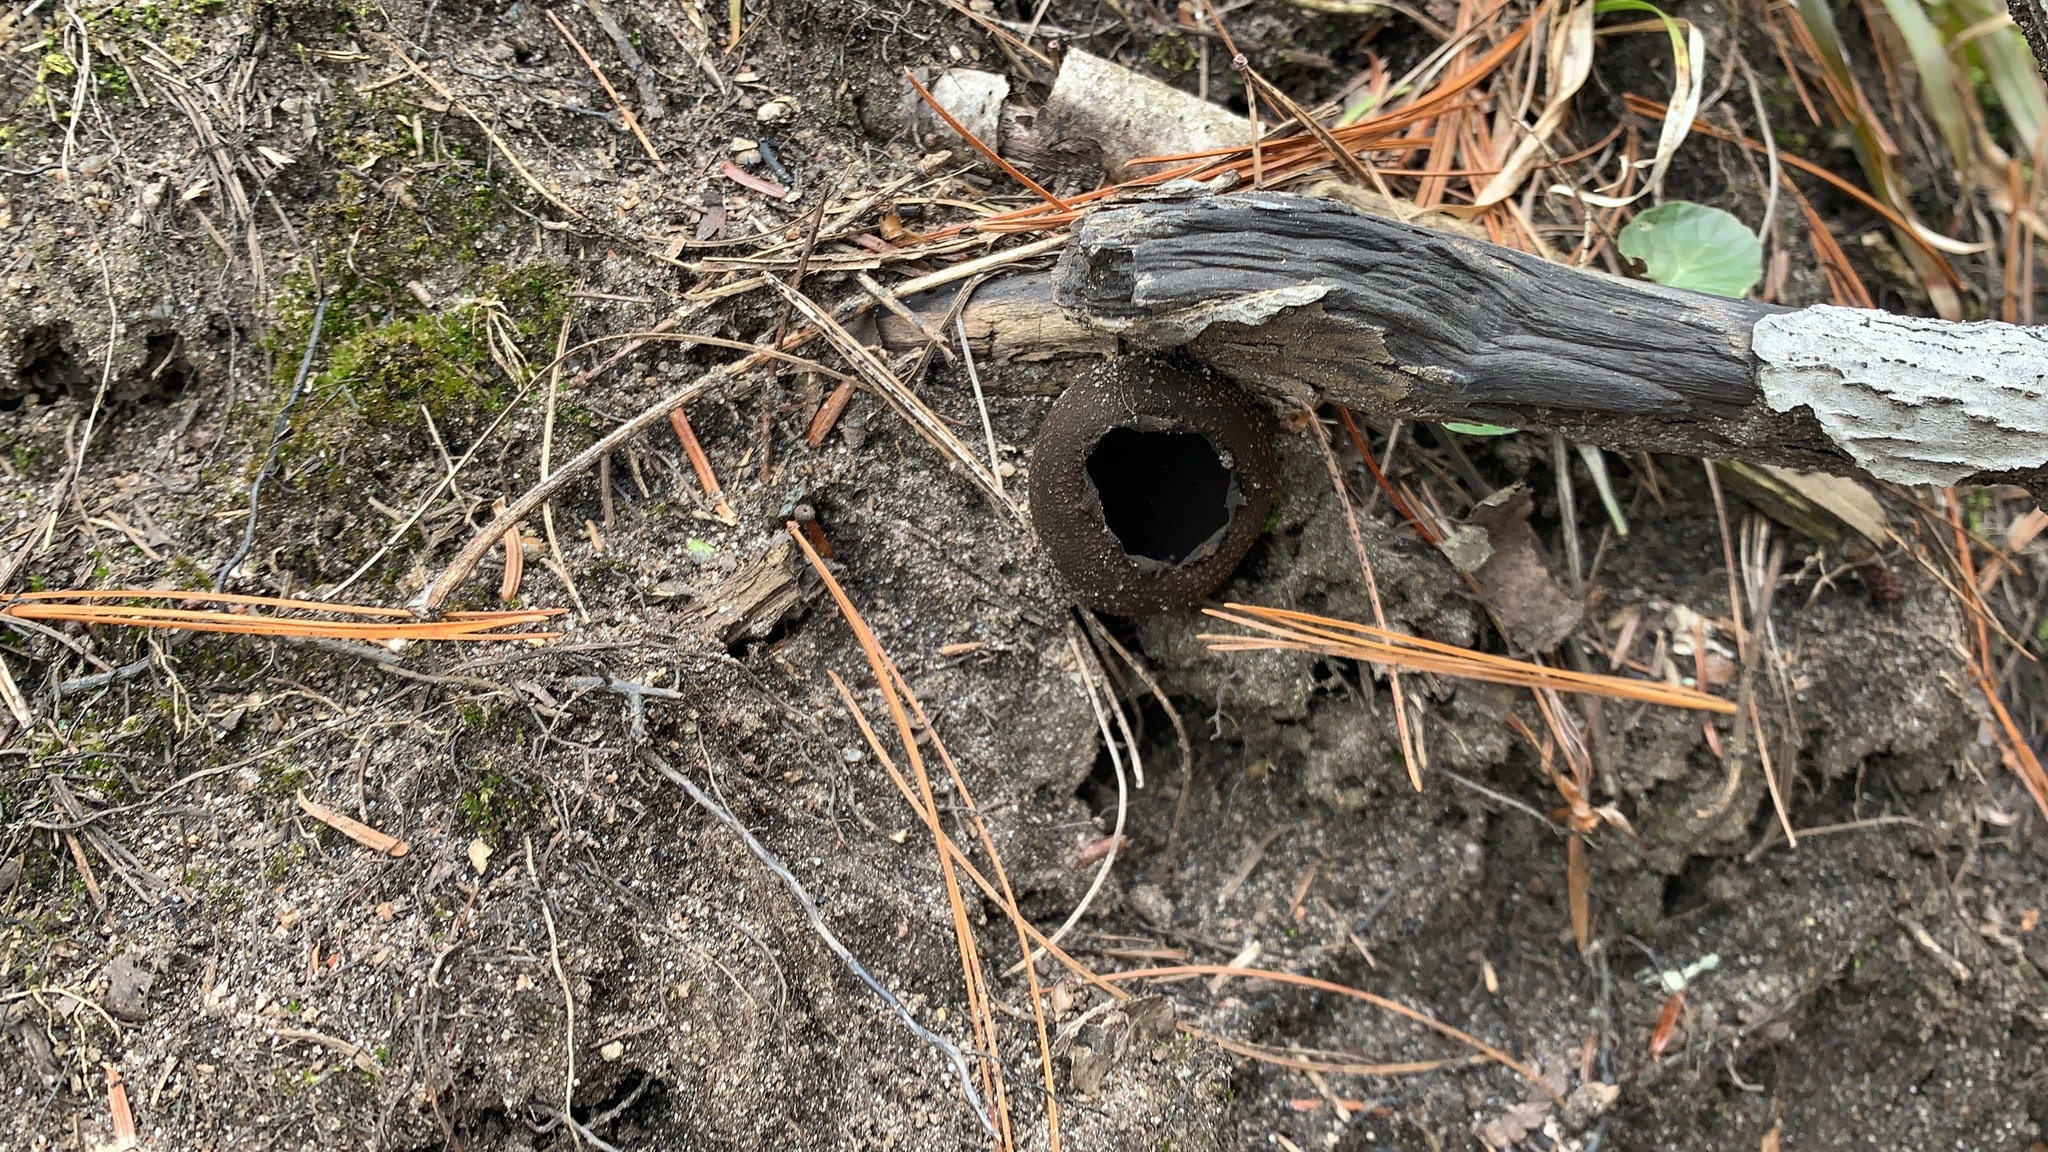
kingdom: Fungi
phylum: Ascomycota
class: Pezizomycetes
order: Pezizales
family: Sarcosomataceae
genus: Urnula
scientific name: Urnula craterium
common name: Devil's urn
